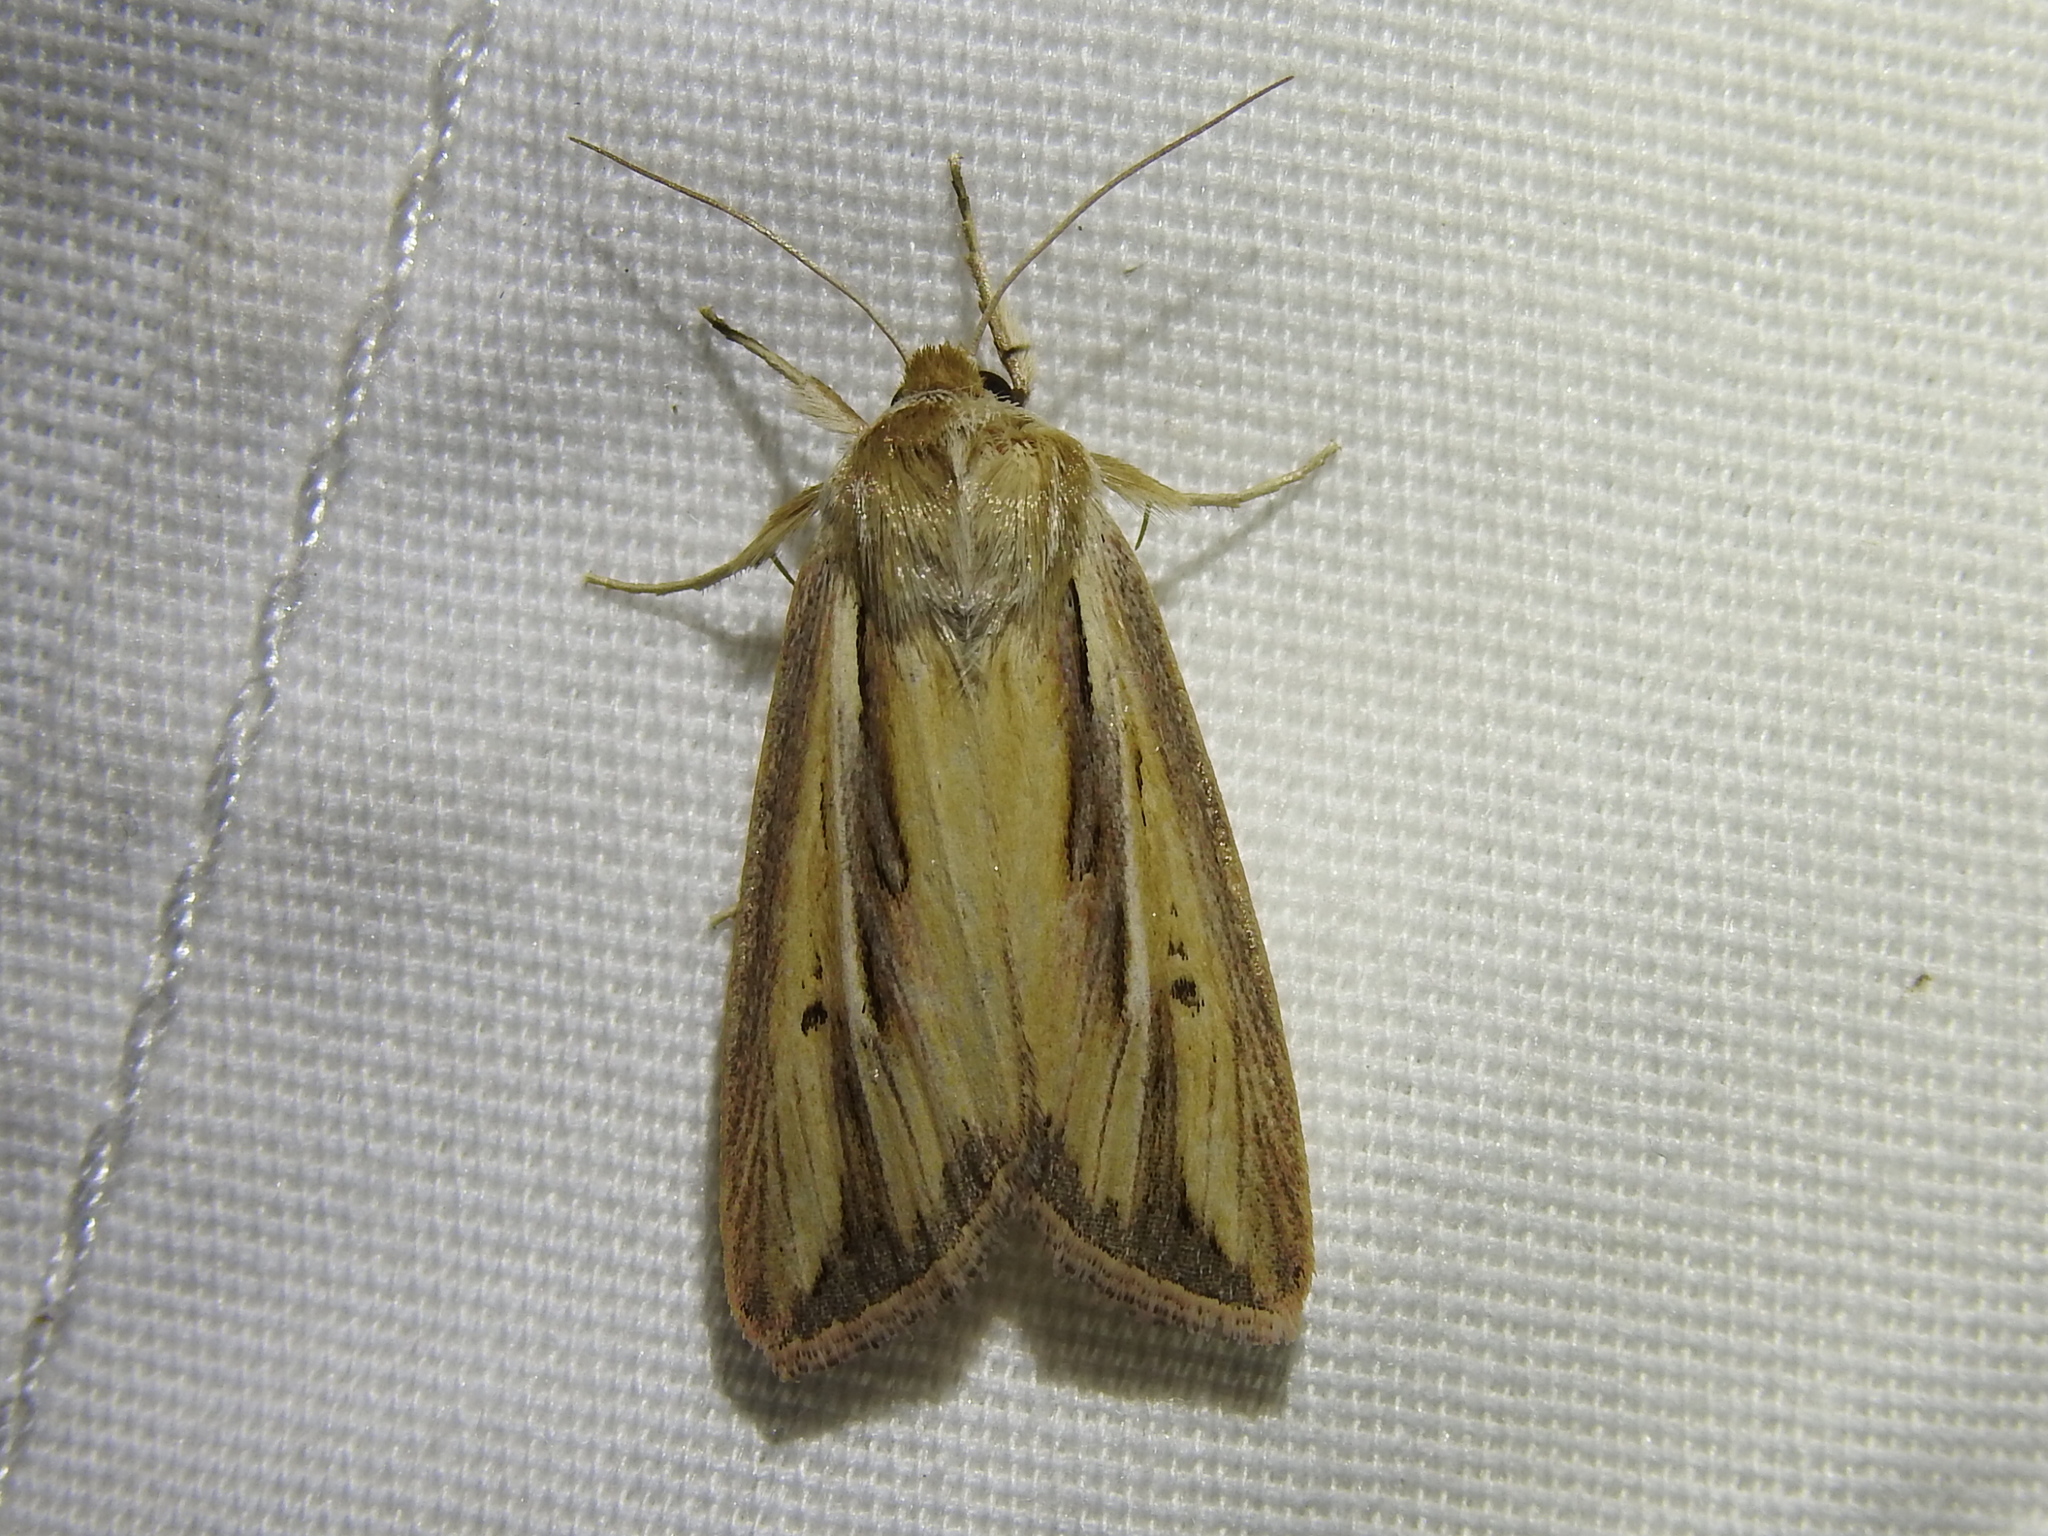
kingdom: Animalia
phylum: Arthropoda
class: Insecta
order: Lepidoptera
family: Noctuidae
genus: Dargida
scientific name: Dargida diffusa
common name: Wheat head armyworm
